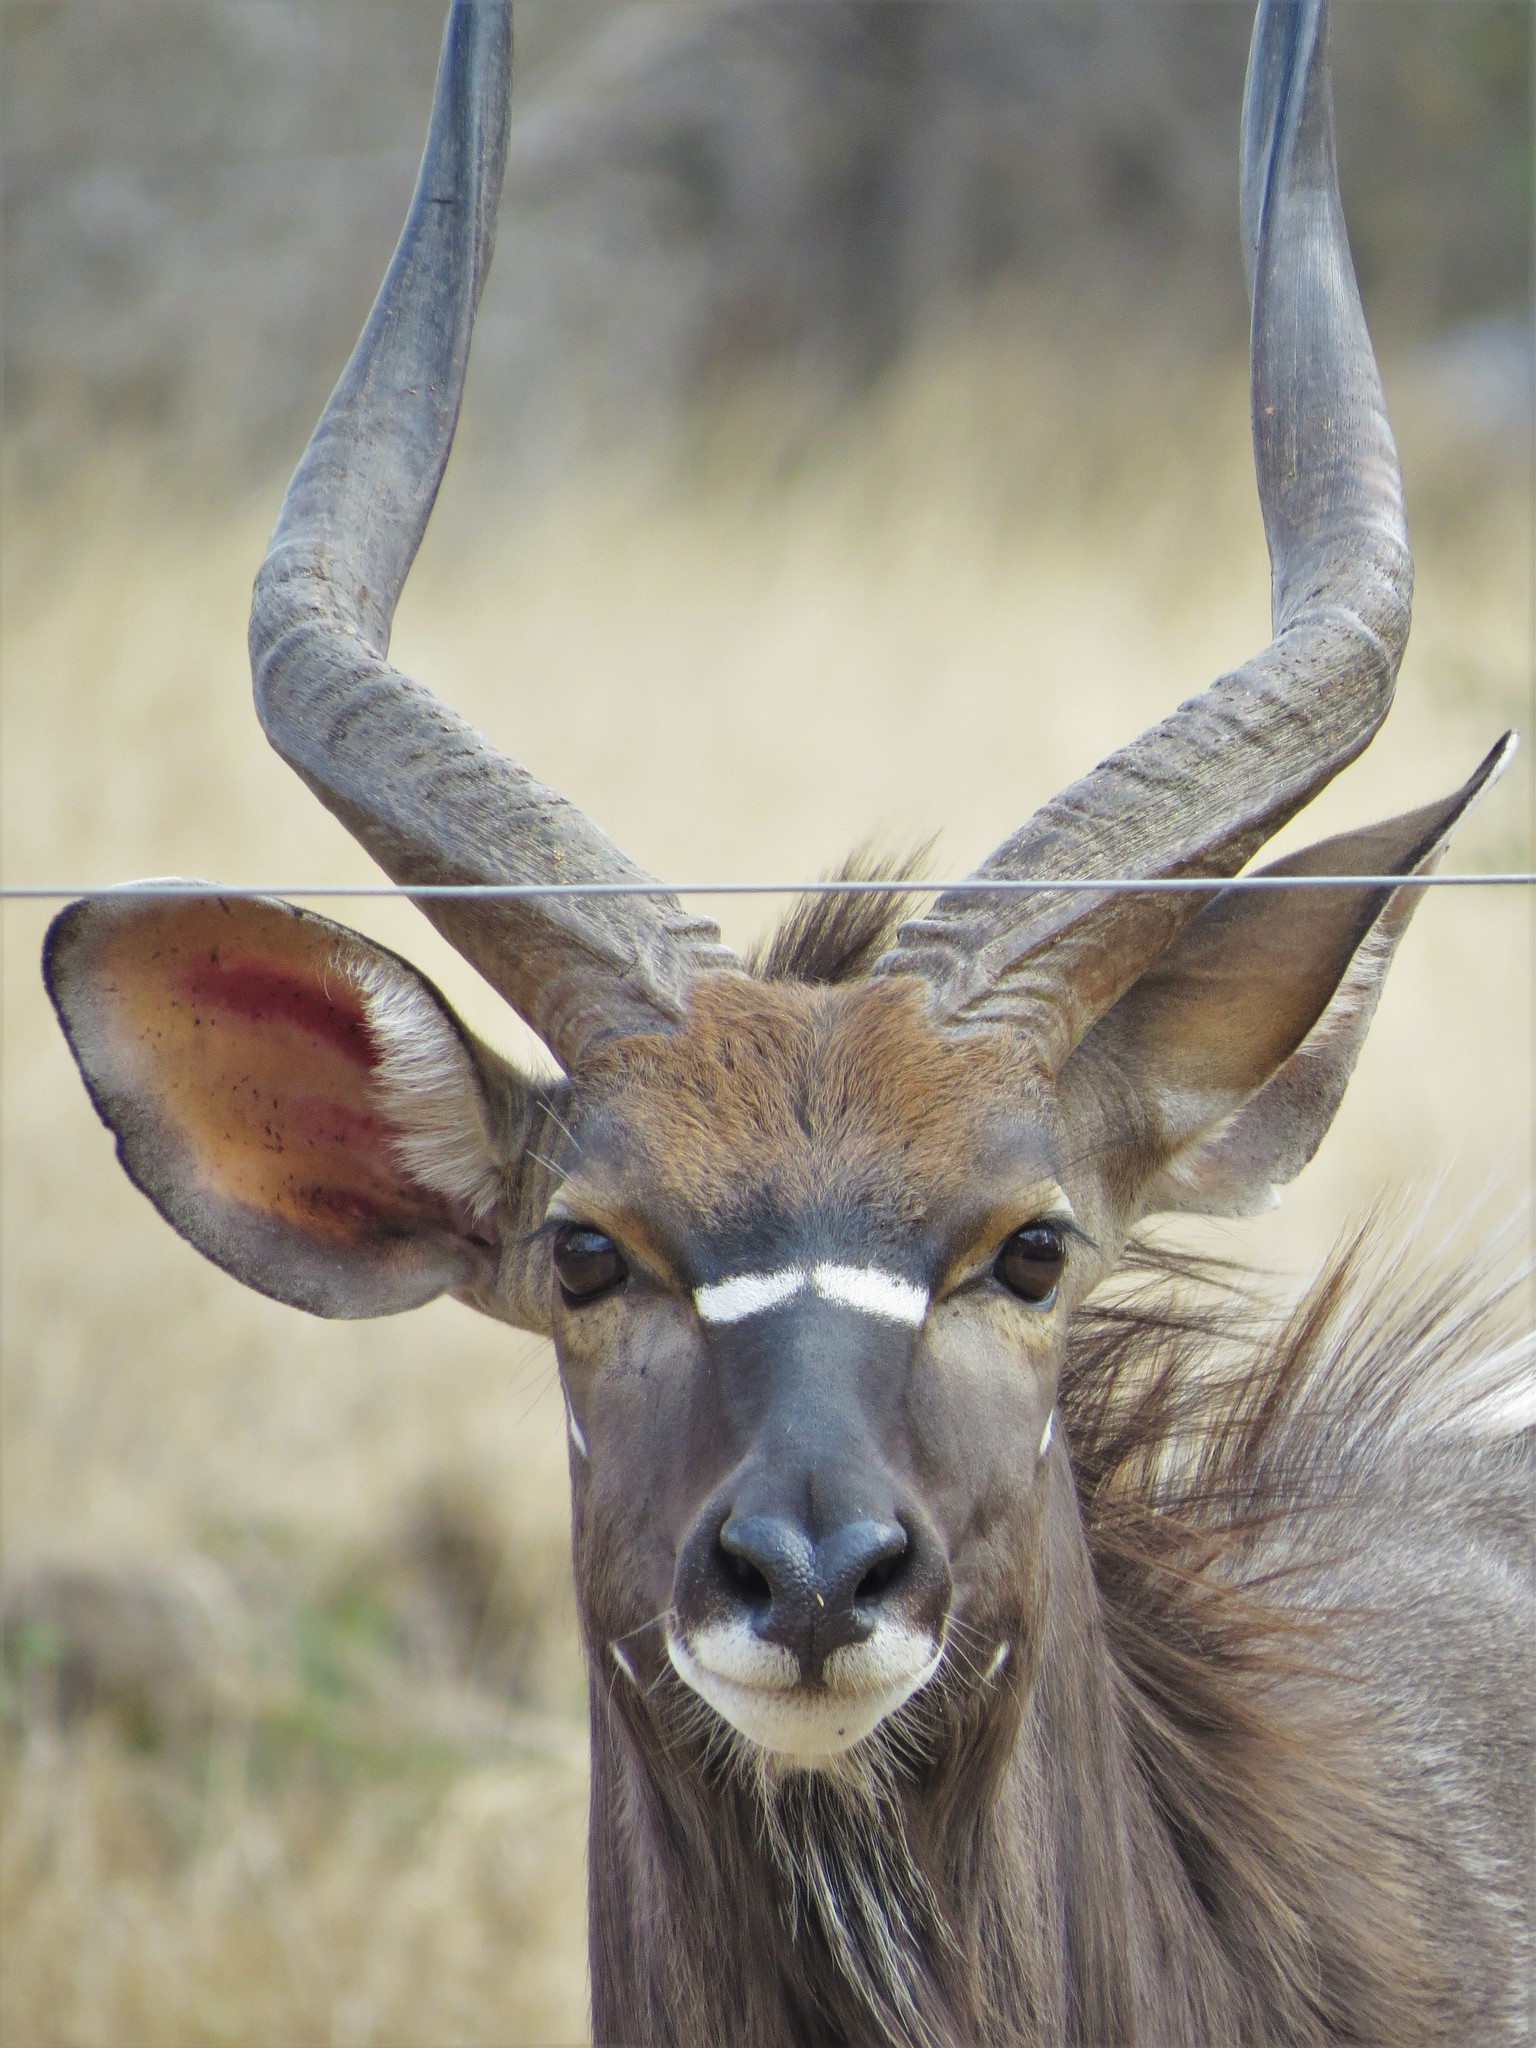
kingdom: Animalia
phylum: Chordata
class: Mammalia
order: Artiodactyla
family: Bovidae
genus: Tragelaphus
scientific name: Tragelaphus angasii
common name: Nyala
